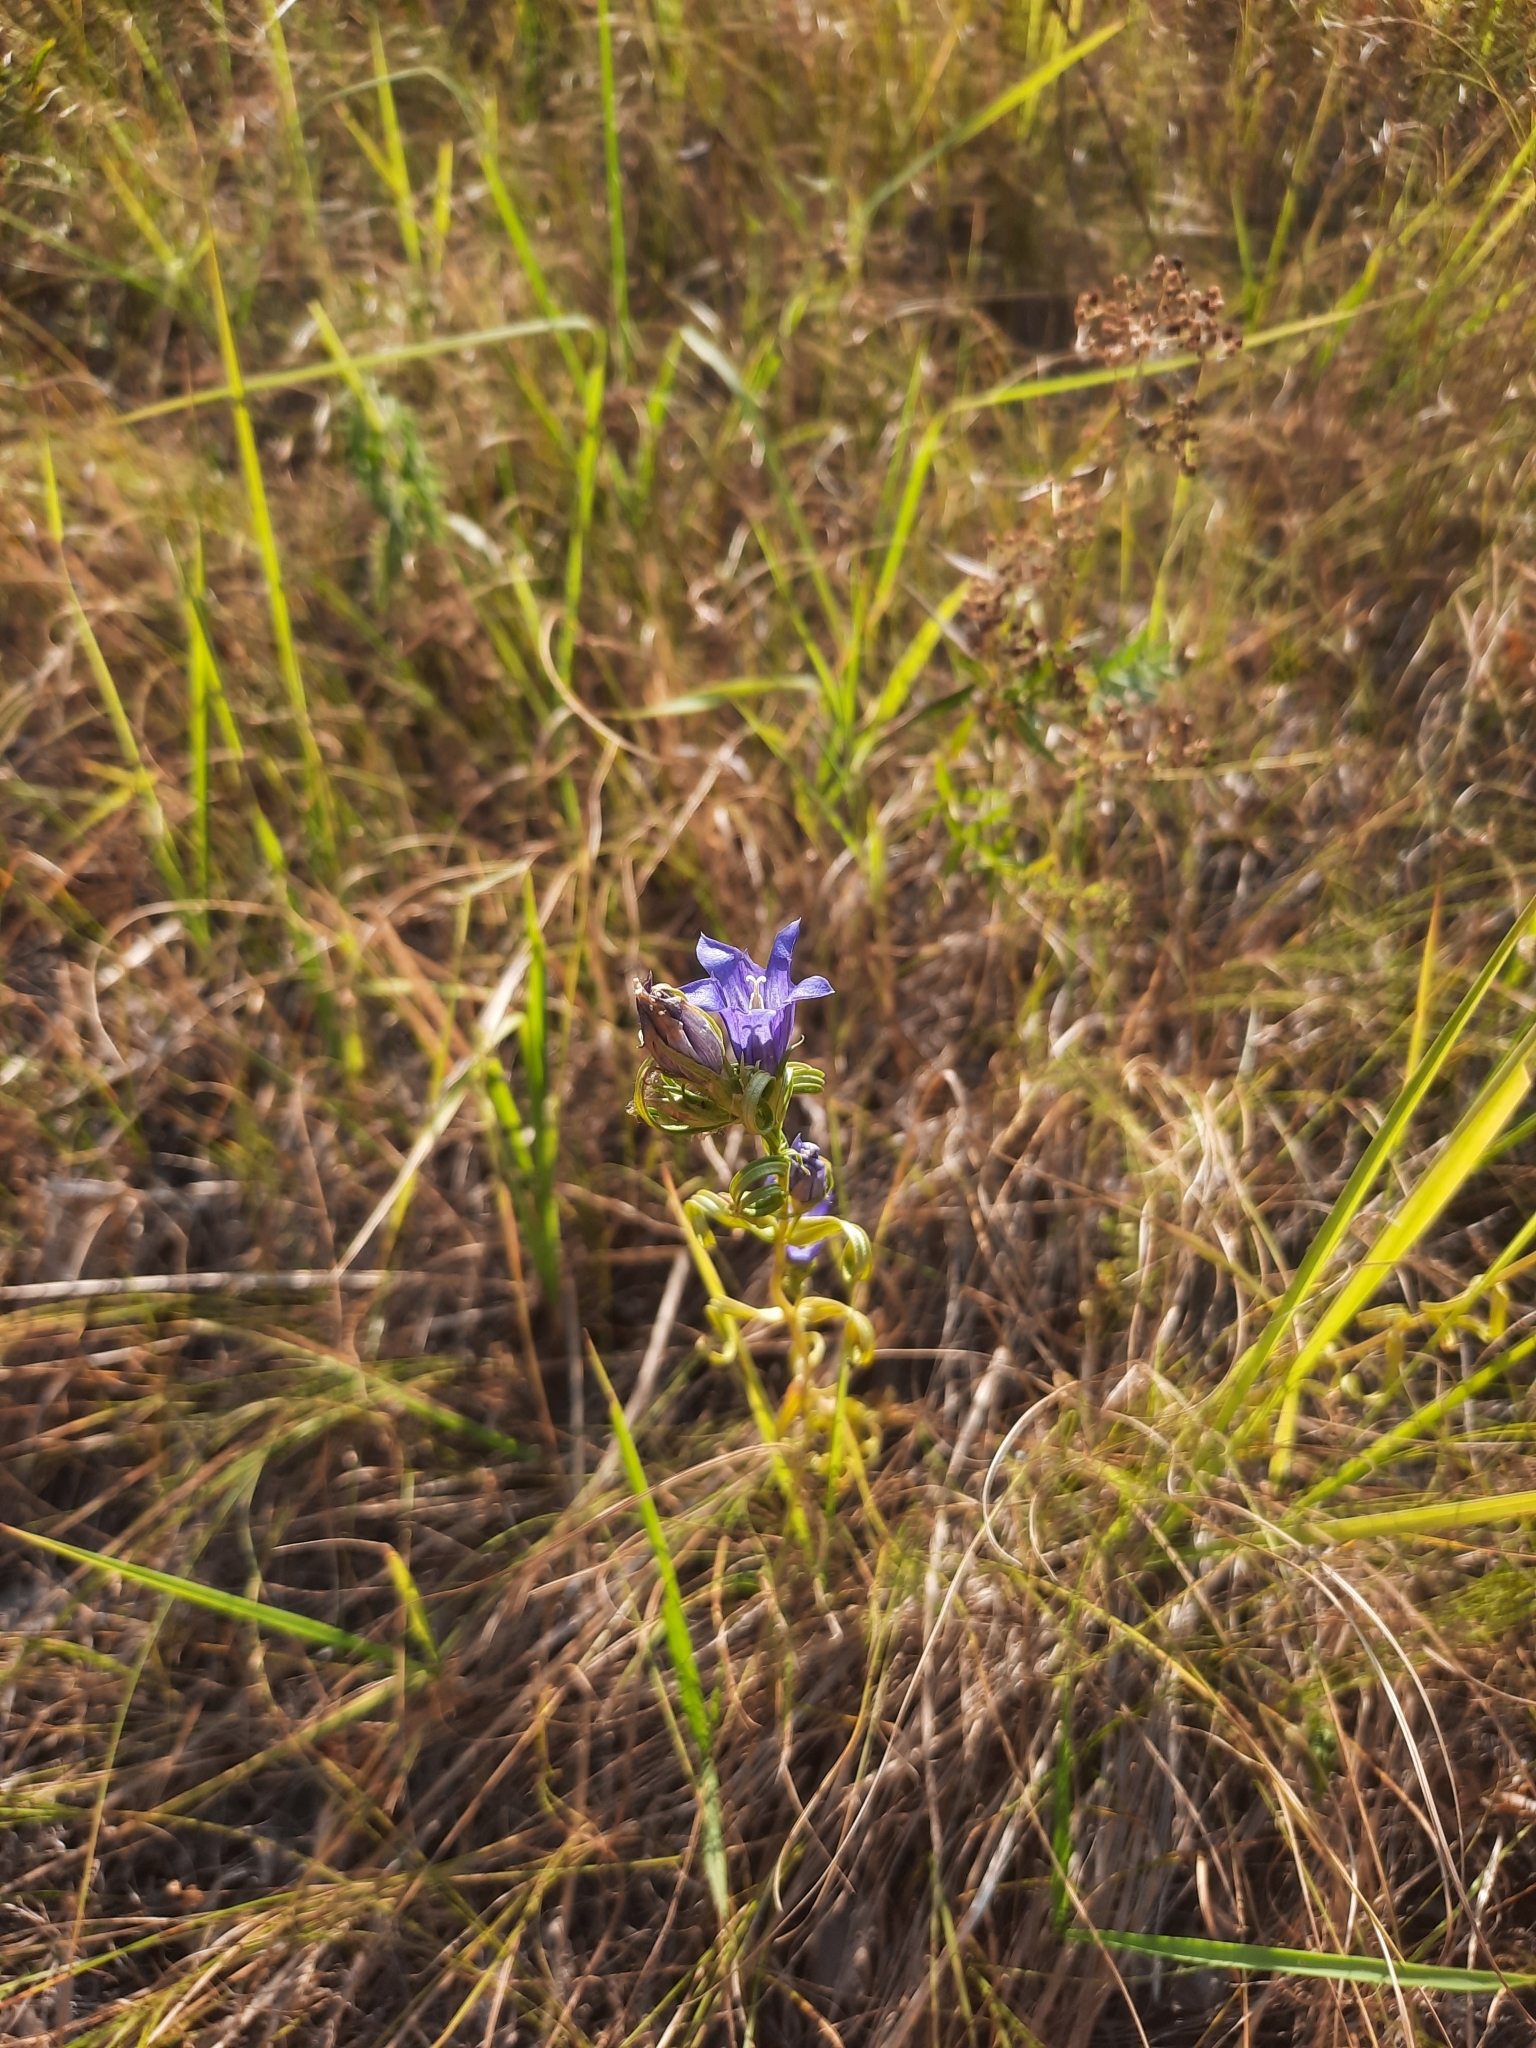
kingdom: Plantae
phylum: Tracheophyta
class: Magnoliopsida
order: Gentianales
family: Gentianaceae
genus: Gentiana
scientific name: Gentiana pneumonanthe
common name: Marsh gentian
